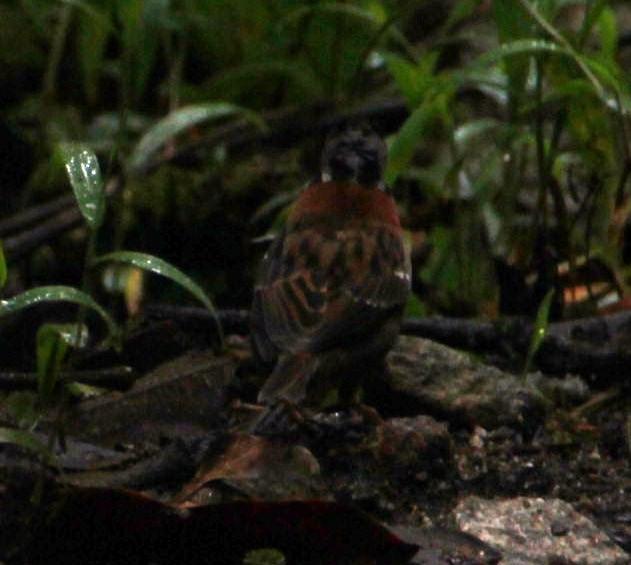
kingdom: Animalia
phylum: Chordata
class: Aves
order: Passeriformes
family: Passerellidae
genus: Zonotrichia
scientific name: Zonotrichia capensis
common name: Rufous-collared sparrow
